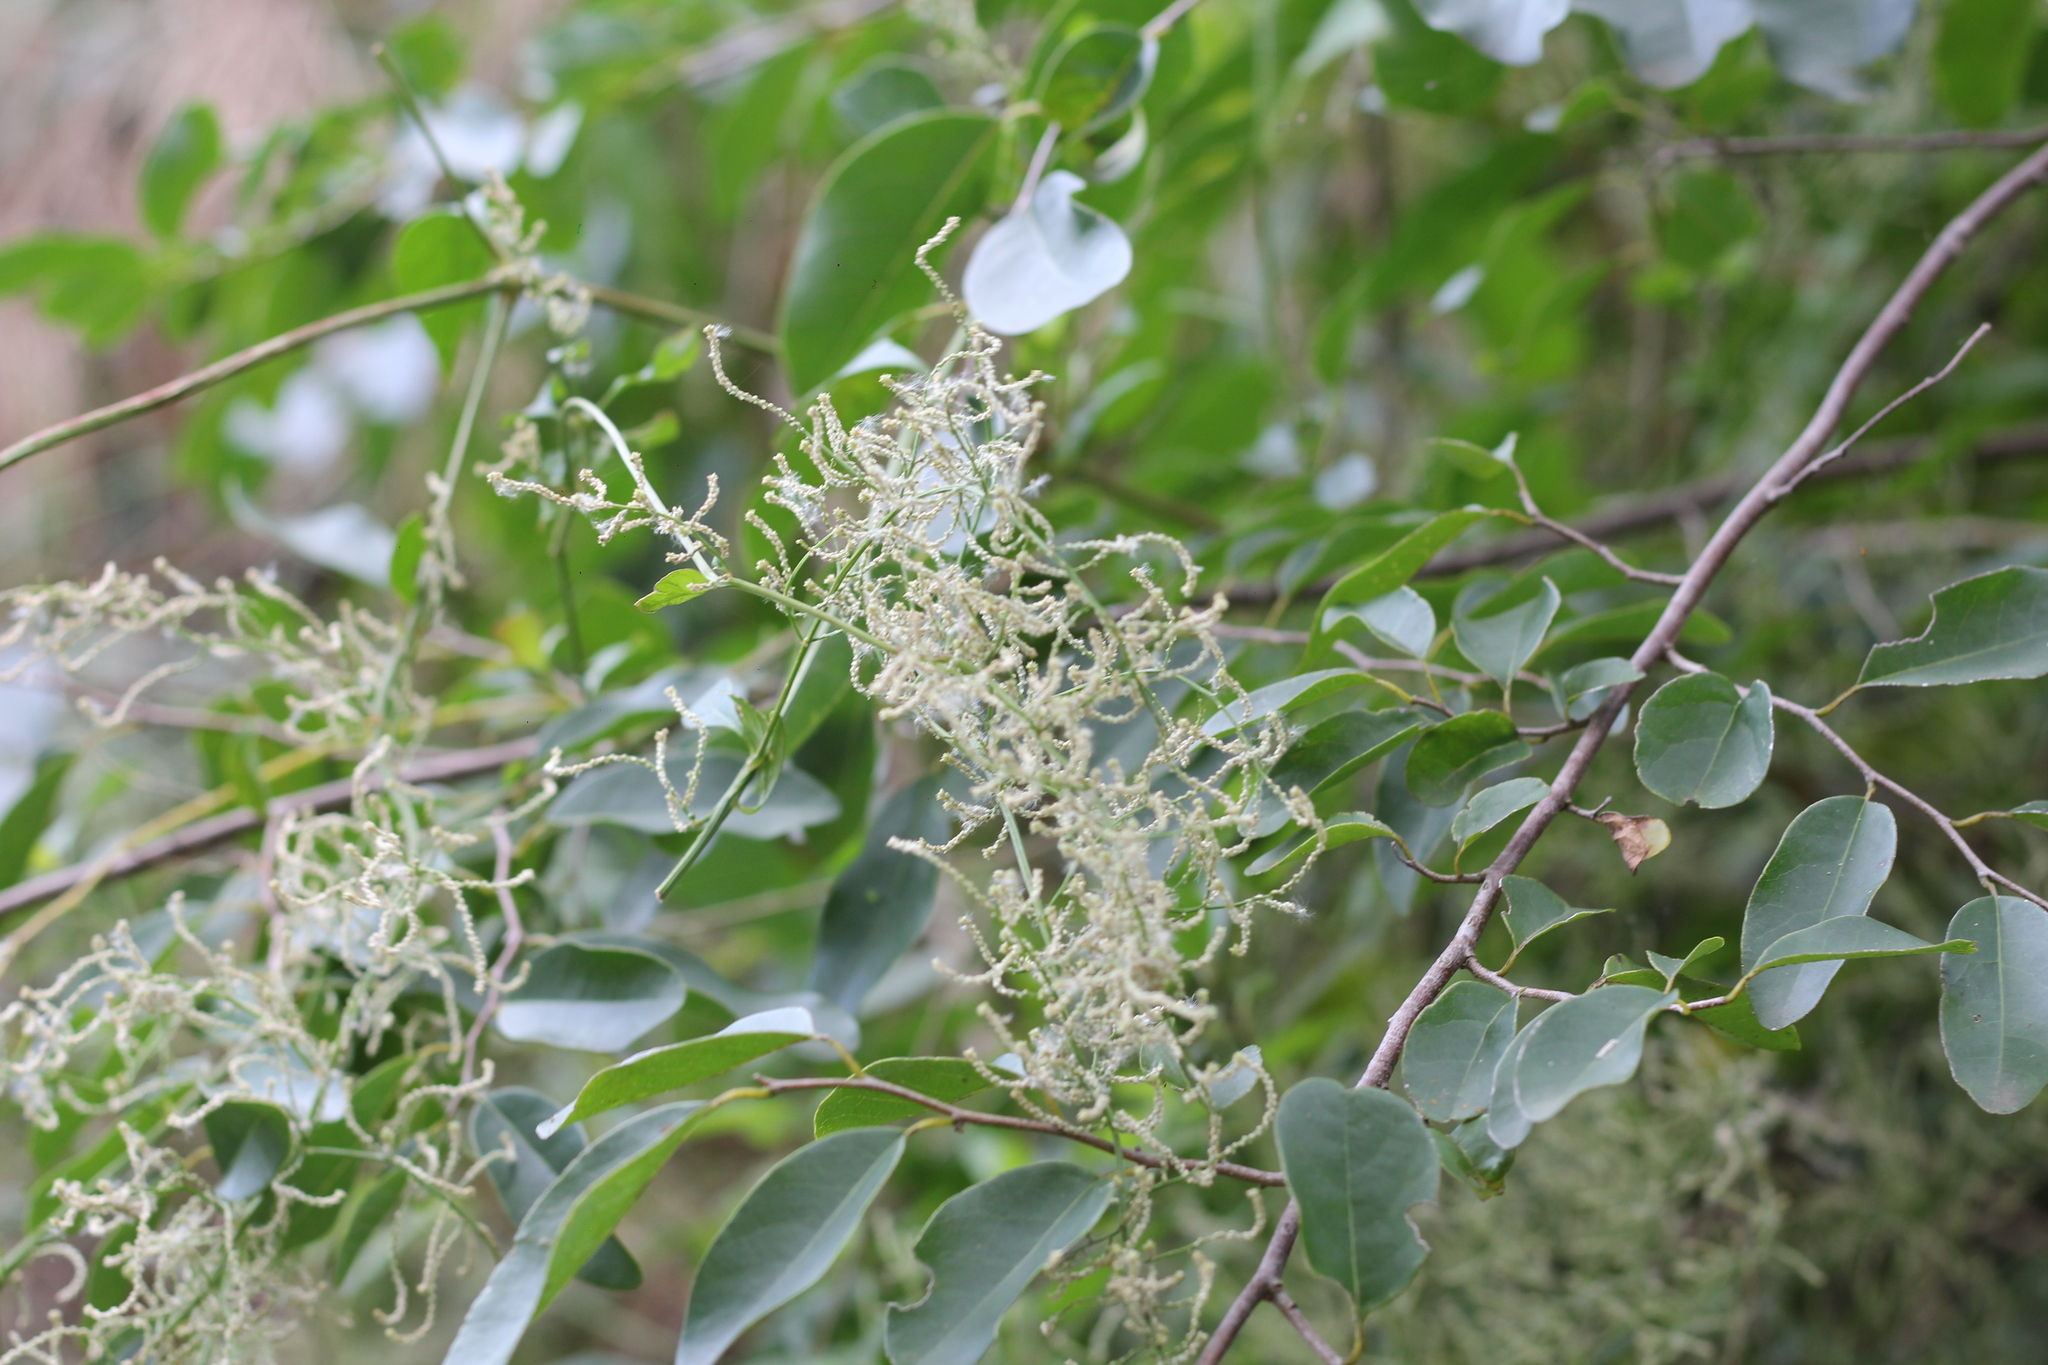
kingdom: Plantae
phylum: Tracheophyta
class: Magnoliopsida
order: Caryophyllales
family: Amaranthaceae
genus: Iresine
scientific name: Iresine diffusa
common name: Juba's-bush
